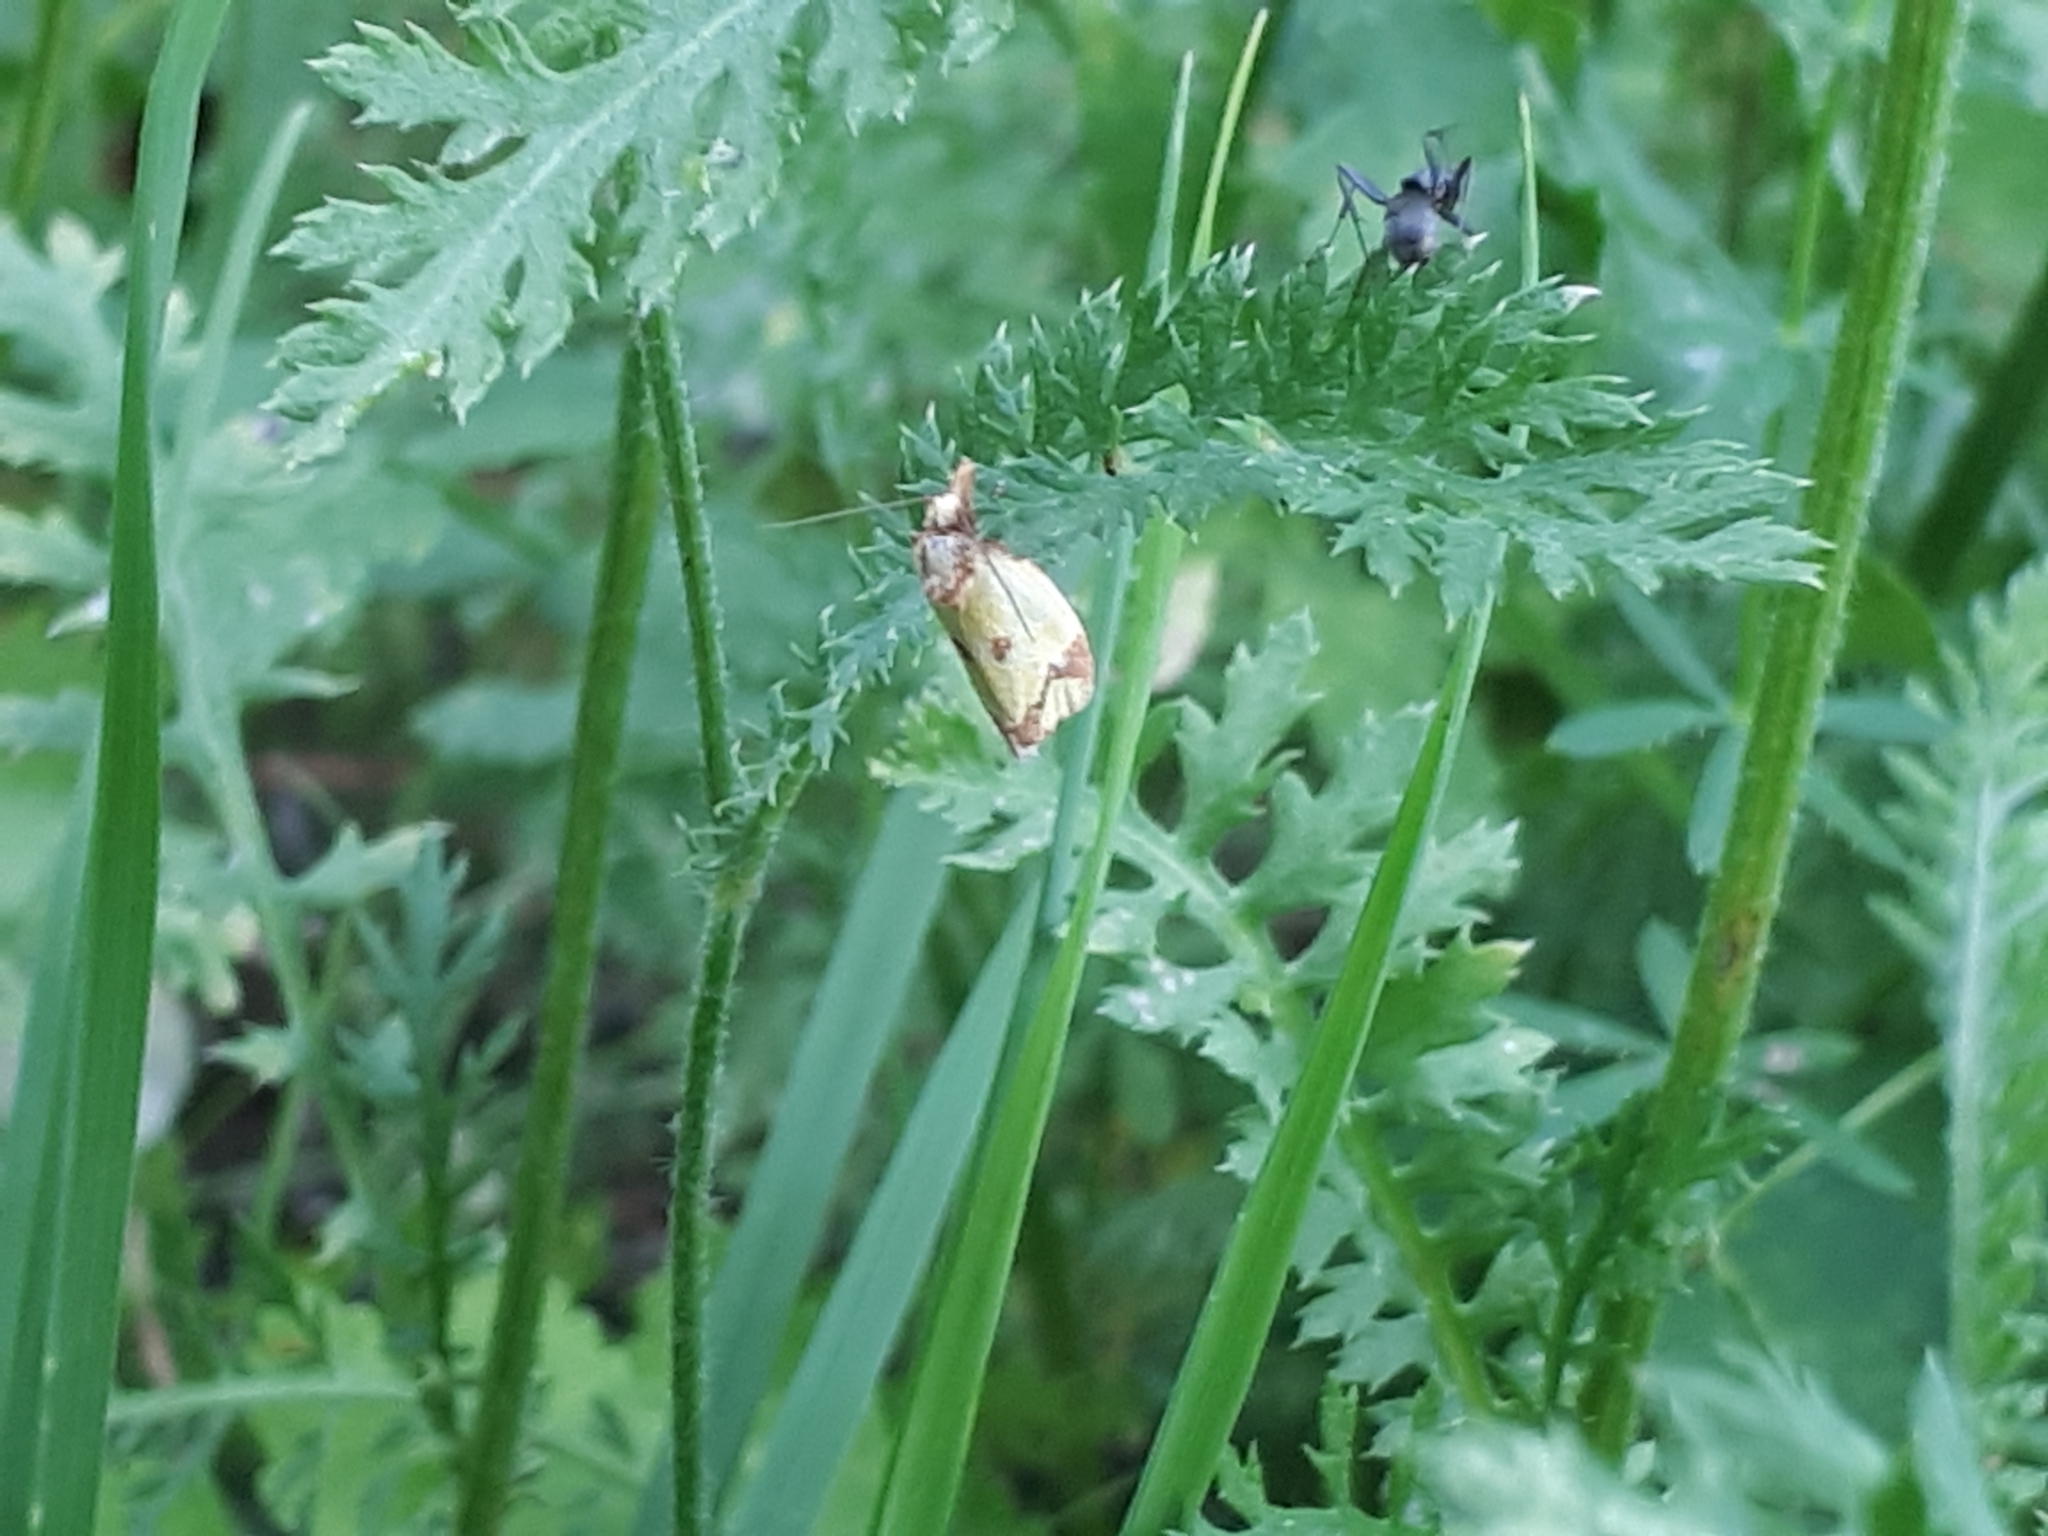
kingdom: Animalia
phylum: Arthropoda
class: Insecta
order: Lepidoptera
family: Tortricidae
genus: Agapeta
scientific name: Agapeta zoegana
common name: Sulfur knapweed root moth
